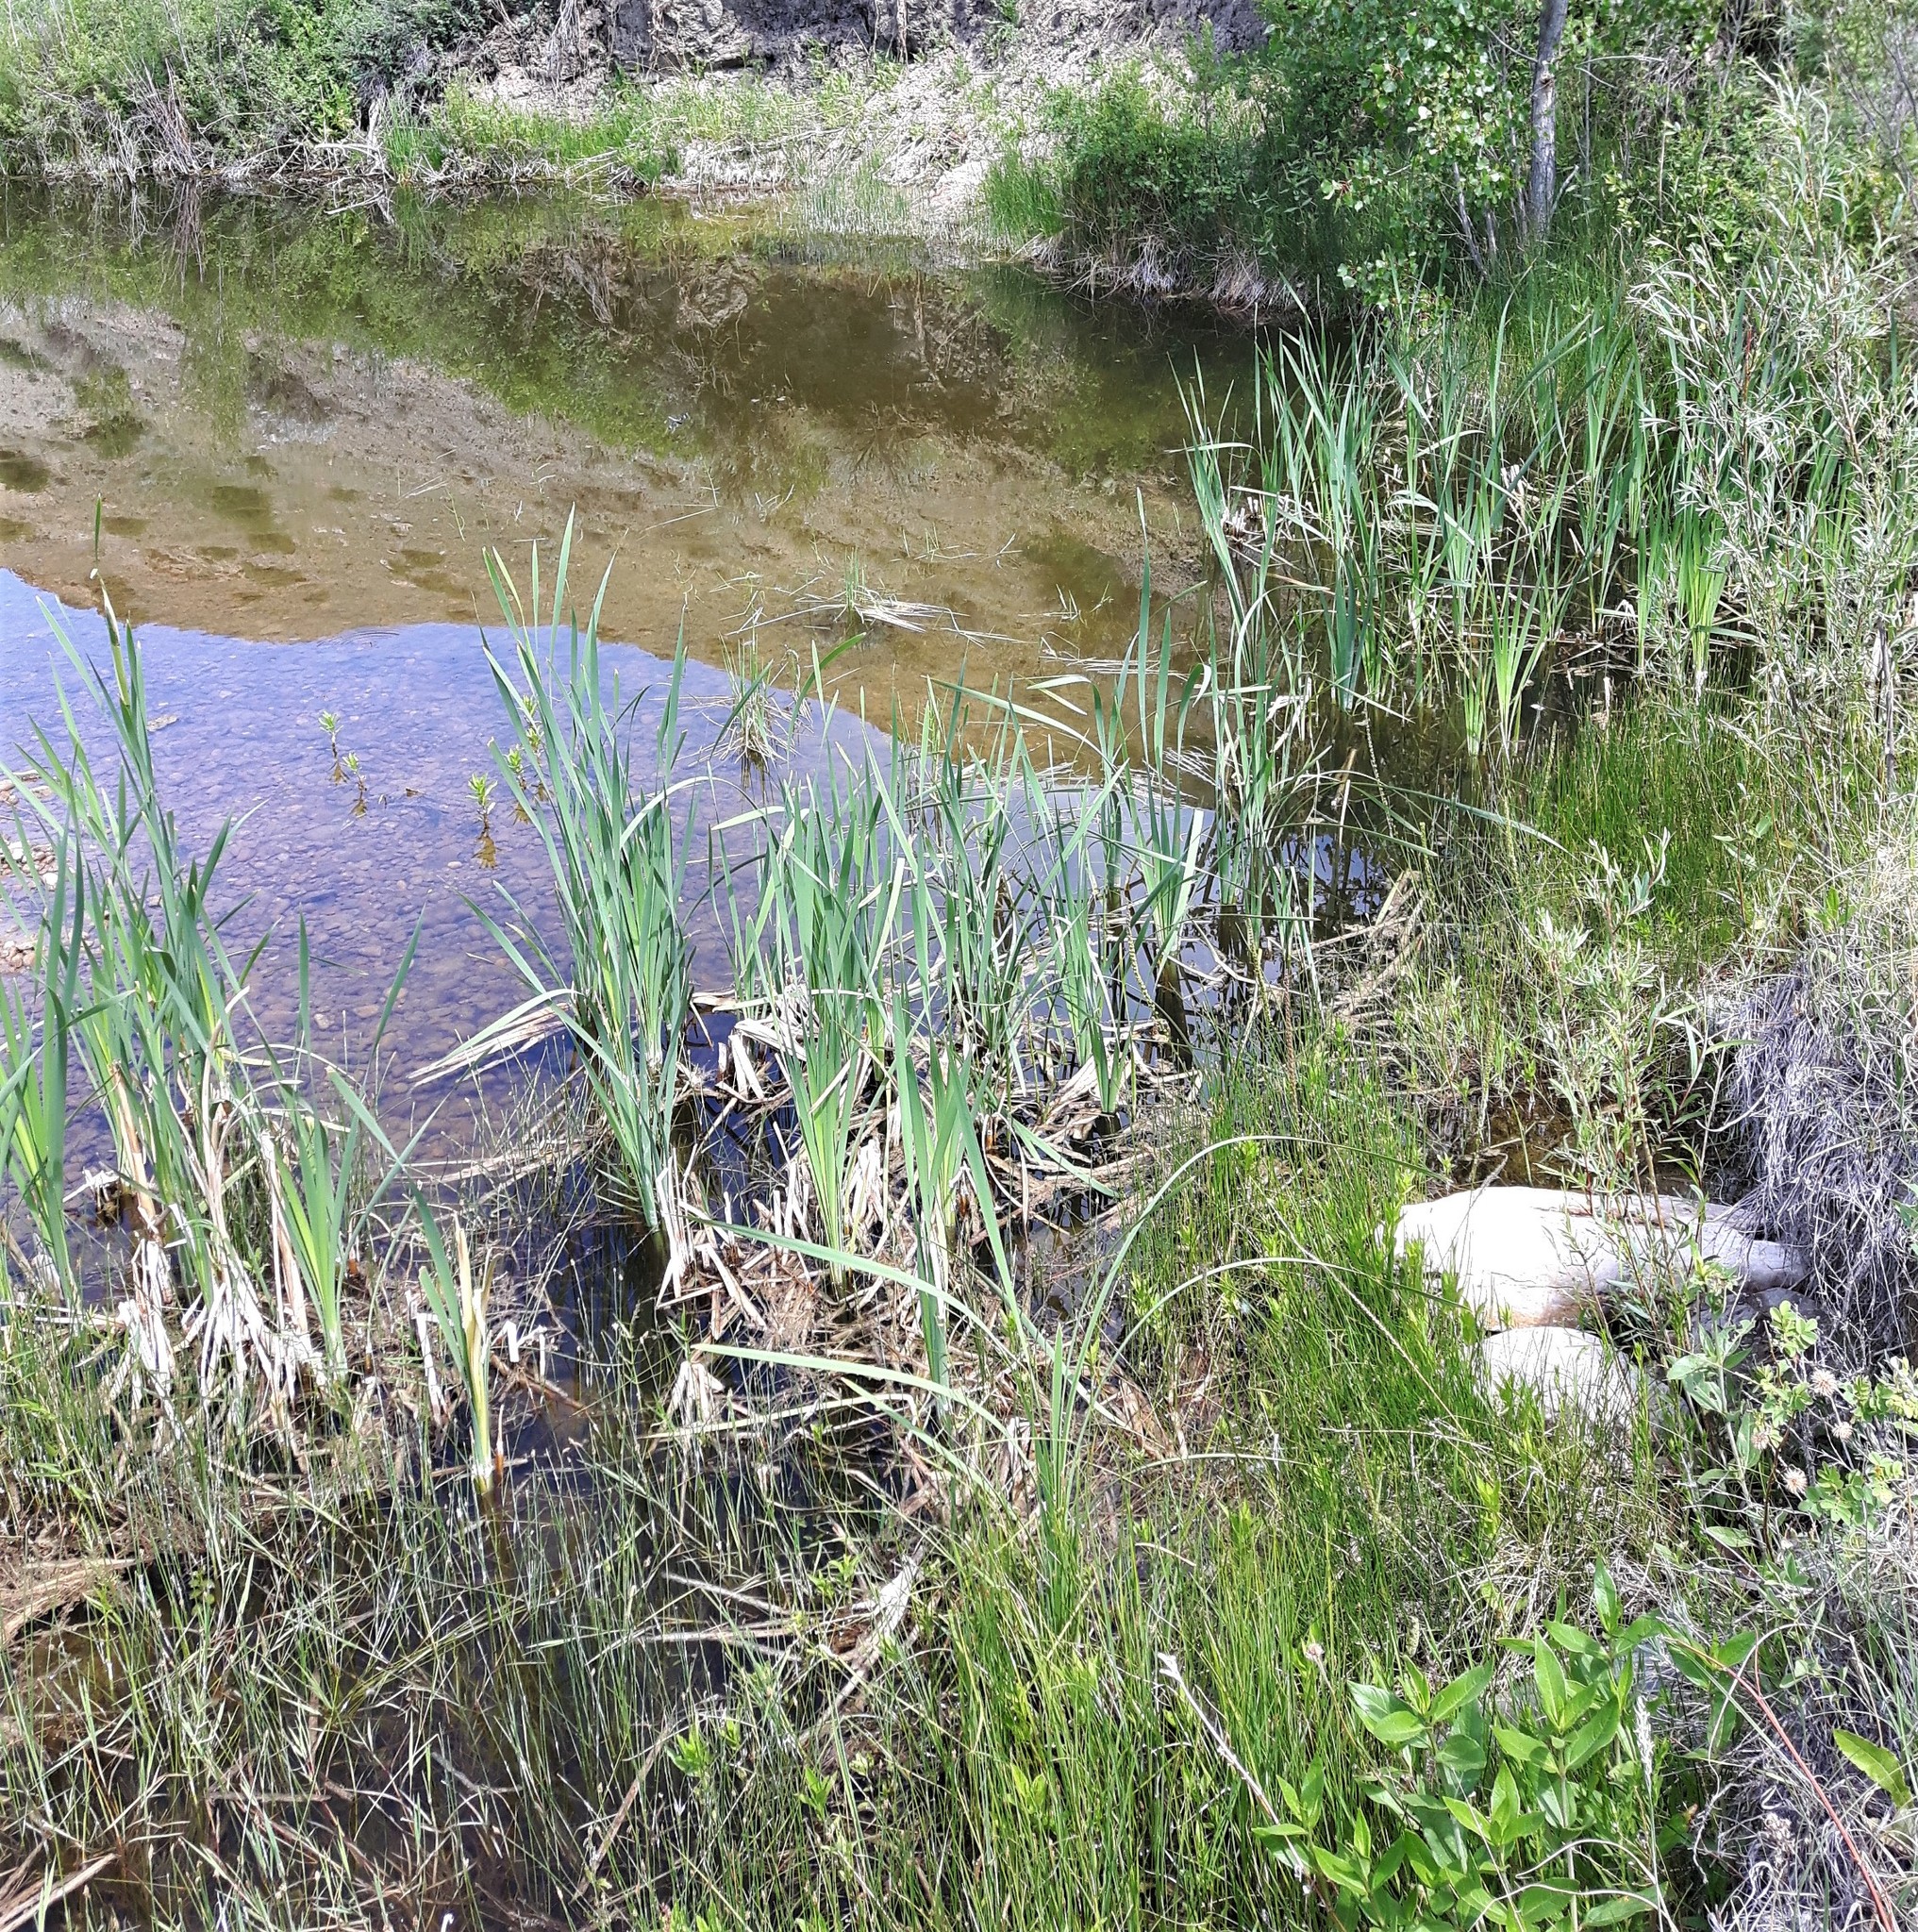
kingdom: Plantae
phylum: Tracheophyta
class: Liliopsida
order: Poales
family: Typhaceae
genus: Typha
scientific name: Typha latifolia
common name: Broadleaf cattail
